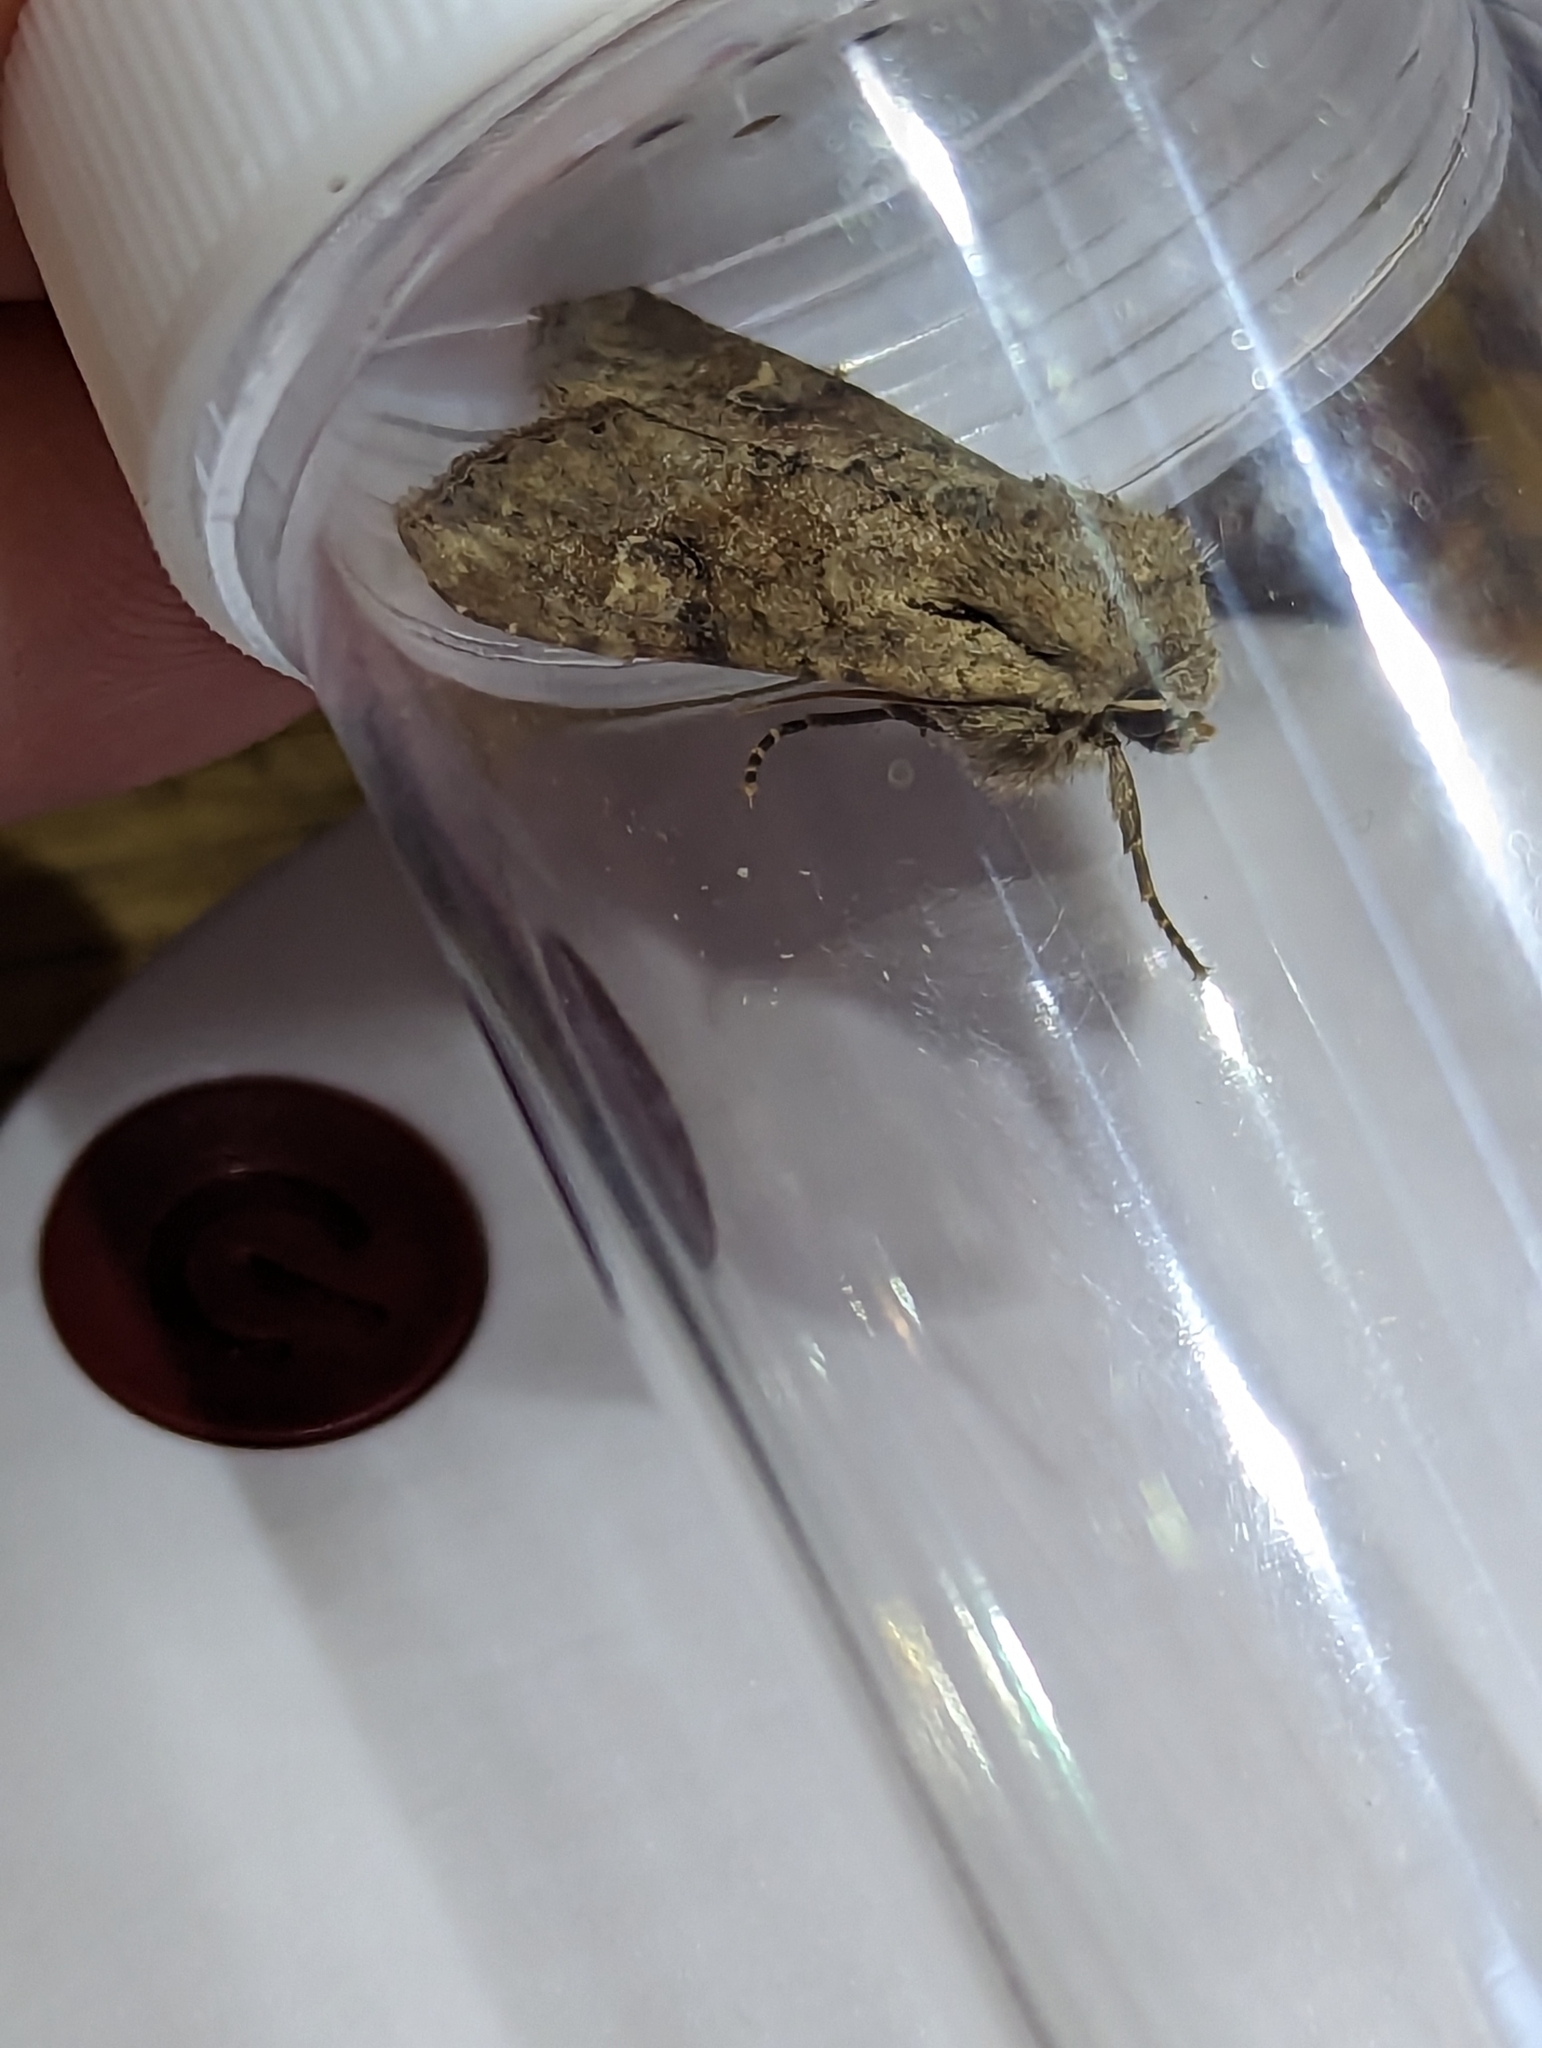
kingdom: Animalia
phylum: Arthropoda
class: Insecta
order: Lepidoptera
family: Noctuidae
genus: Apamea
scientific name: Apamea sordens
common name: Rustic shoulder-knot
